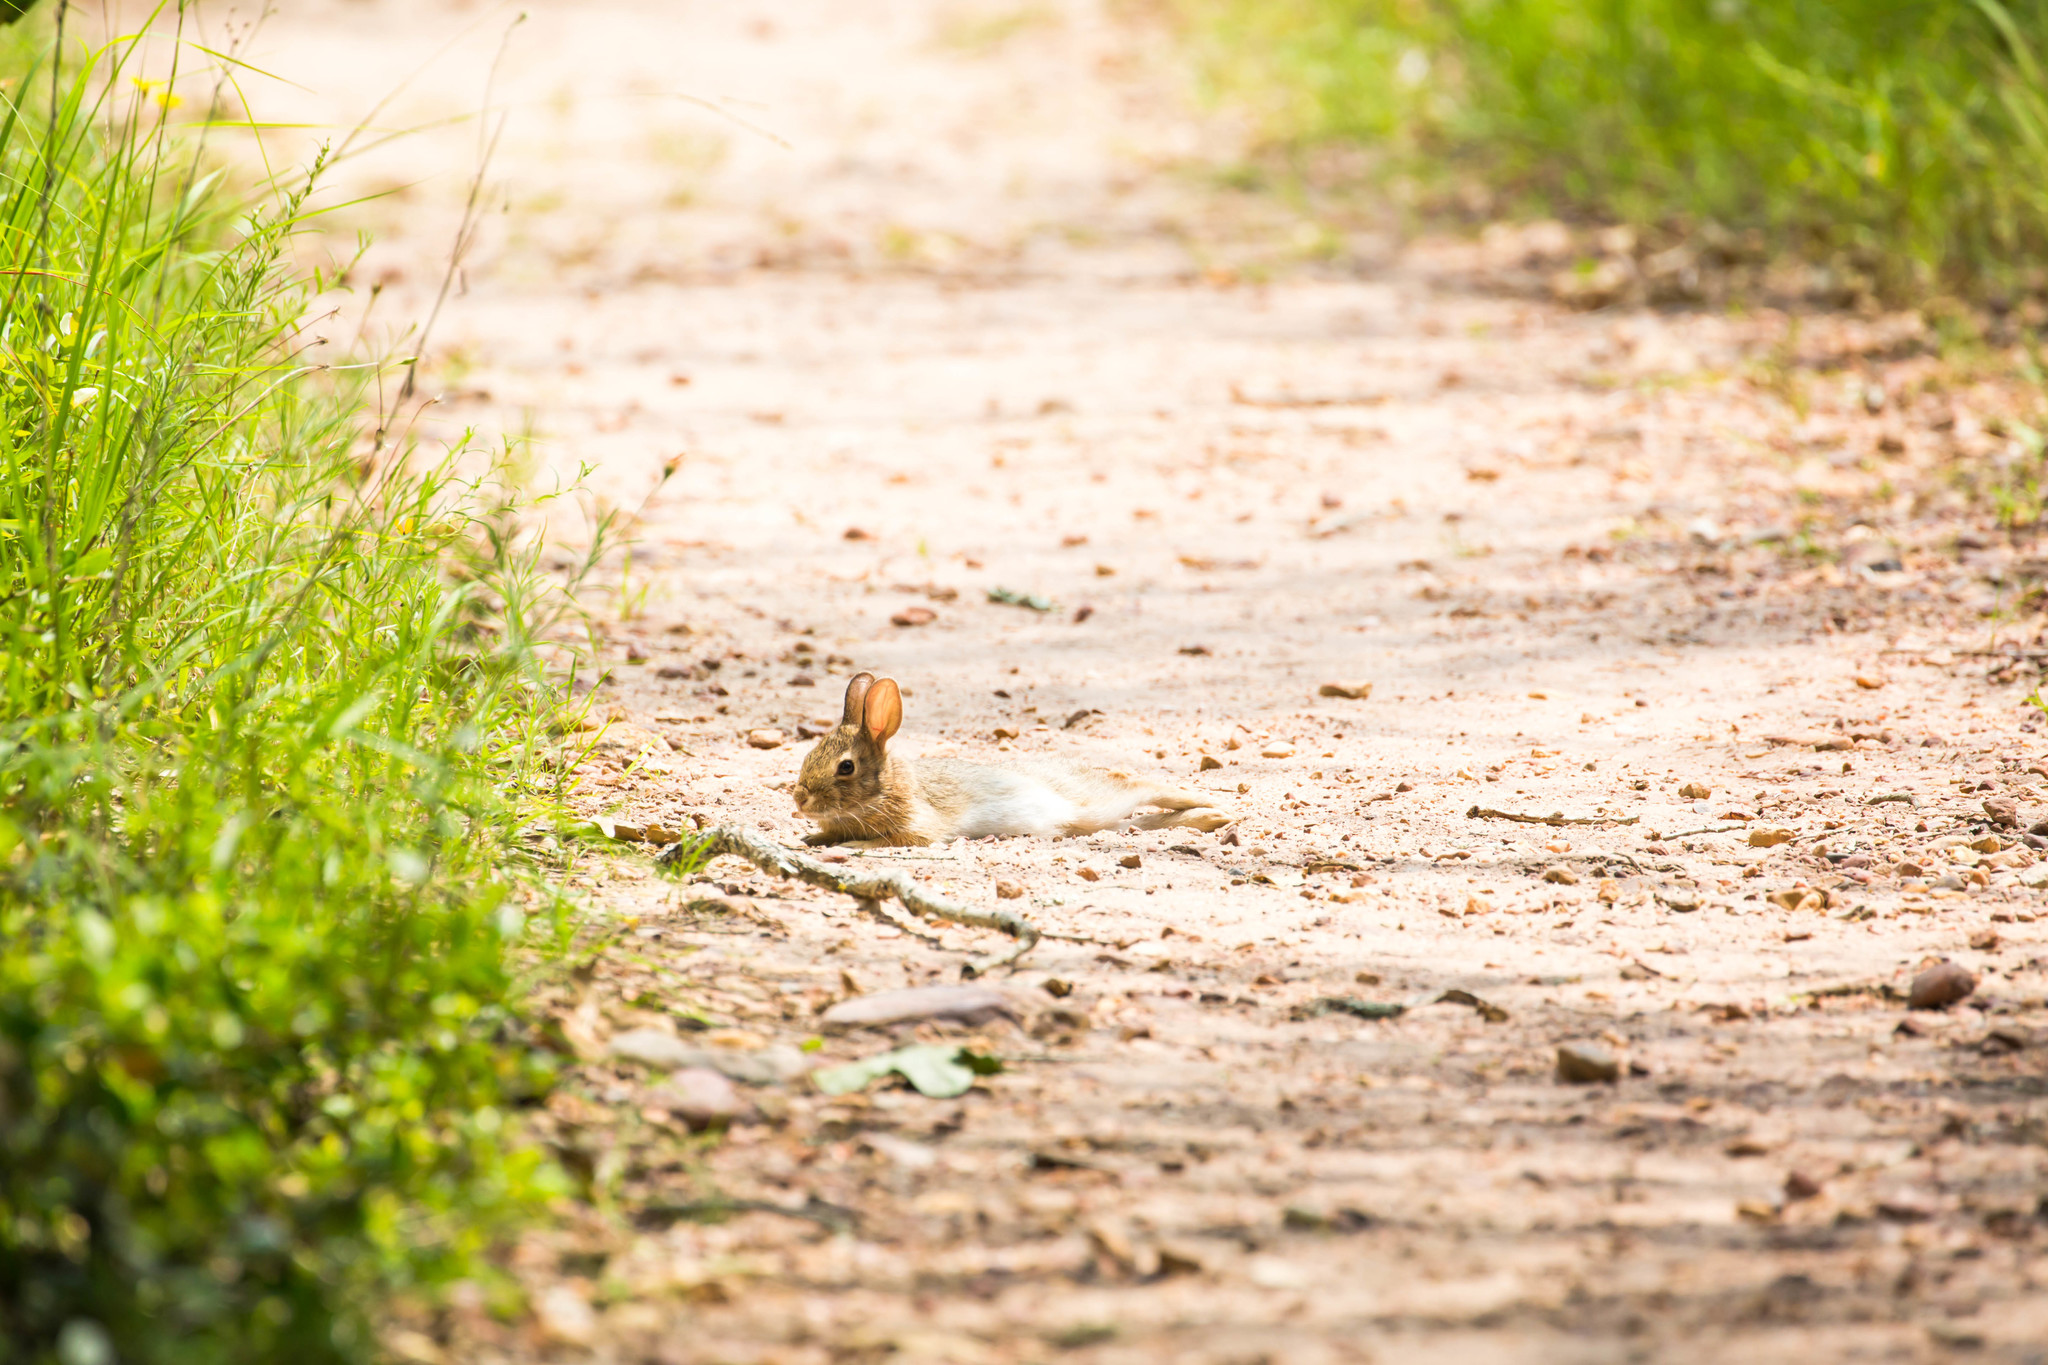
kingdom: Animalia
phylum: Chordata
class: Mammalia
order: Lagomorpha
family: Leporidae
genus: Sylvilagus
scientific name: Sylvilagus floridanus
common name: Eastern cottontail
